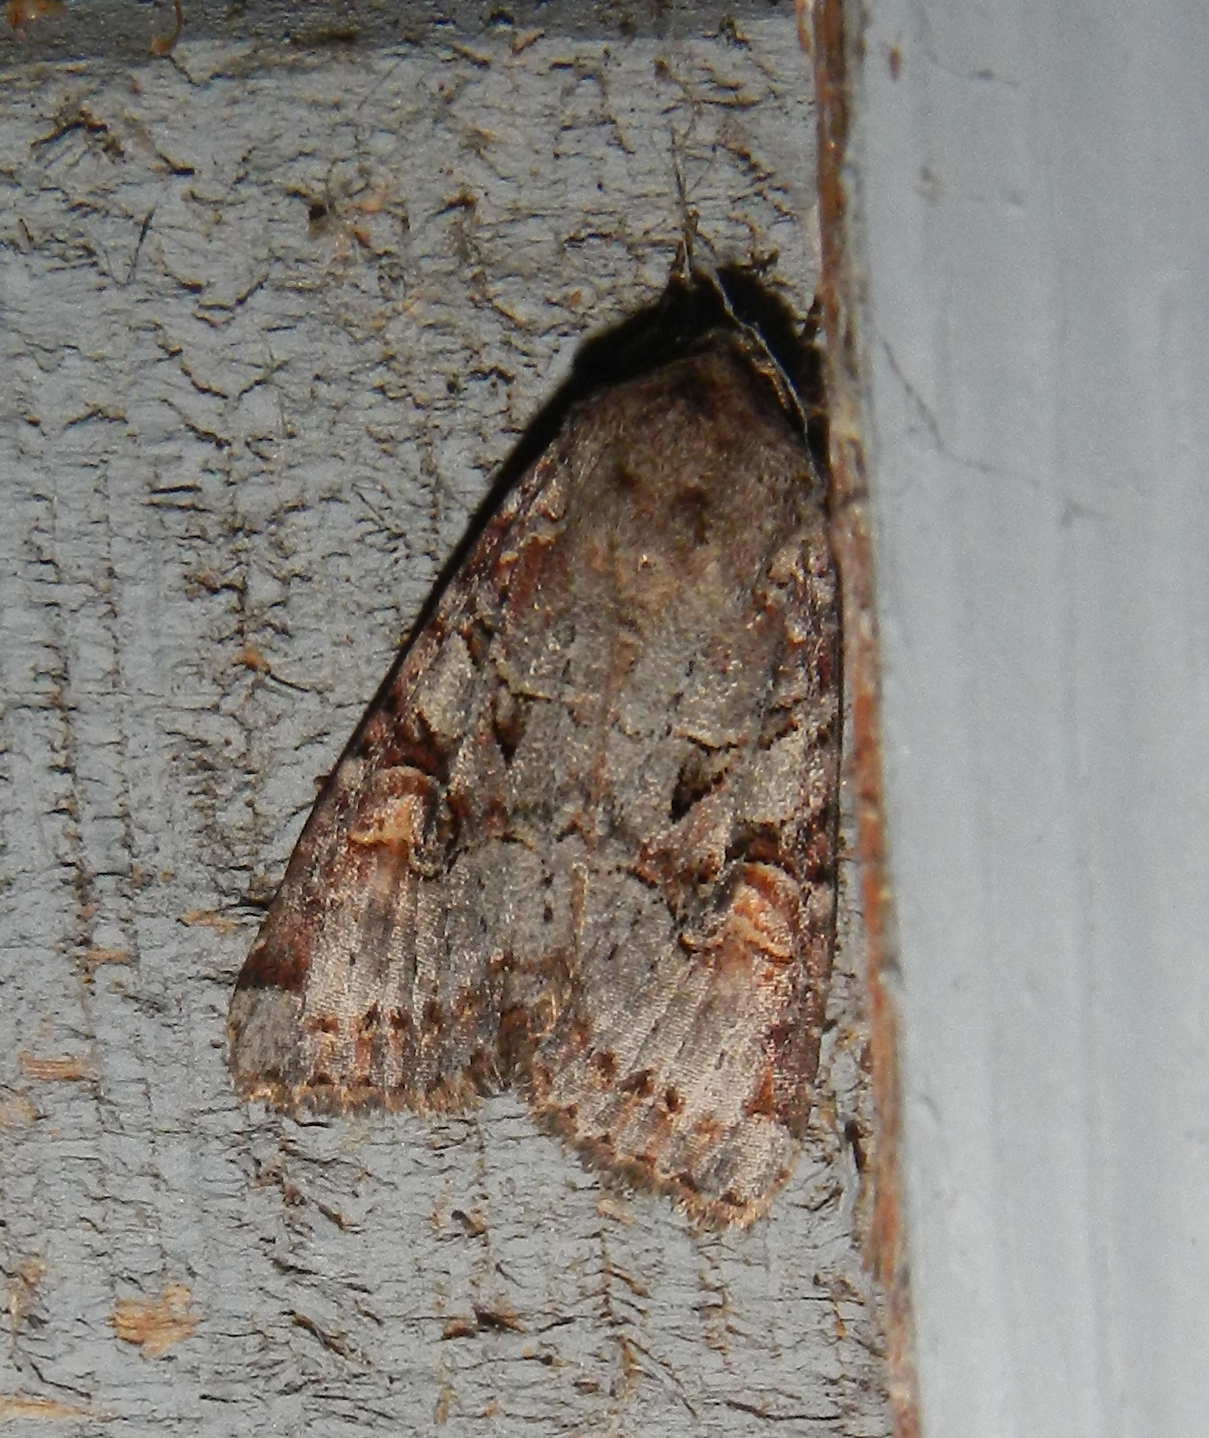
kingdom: Animalia
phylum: Arthropoda
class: Insecta
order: Lepidoptera
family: Noctuidae
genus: Trichordestra
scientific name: Trichordestra legitima
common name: Striped garden caterpillar
